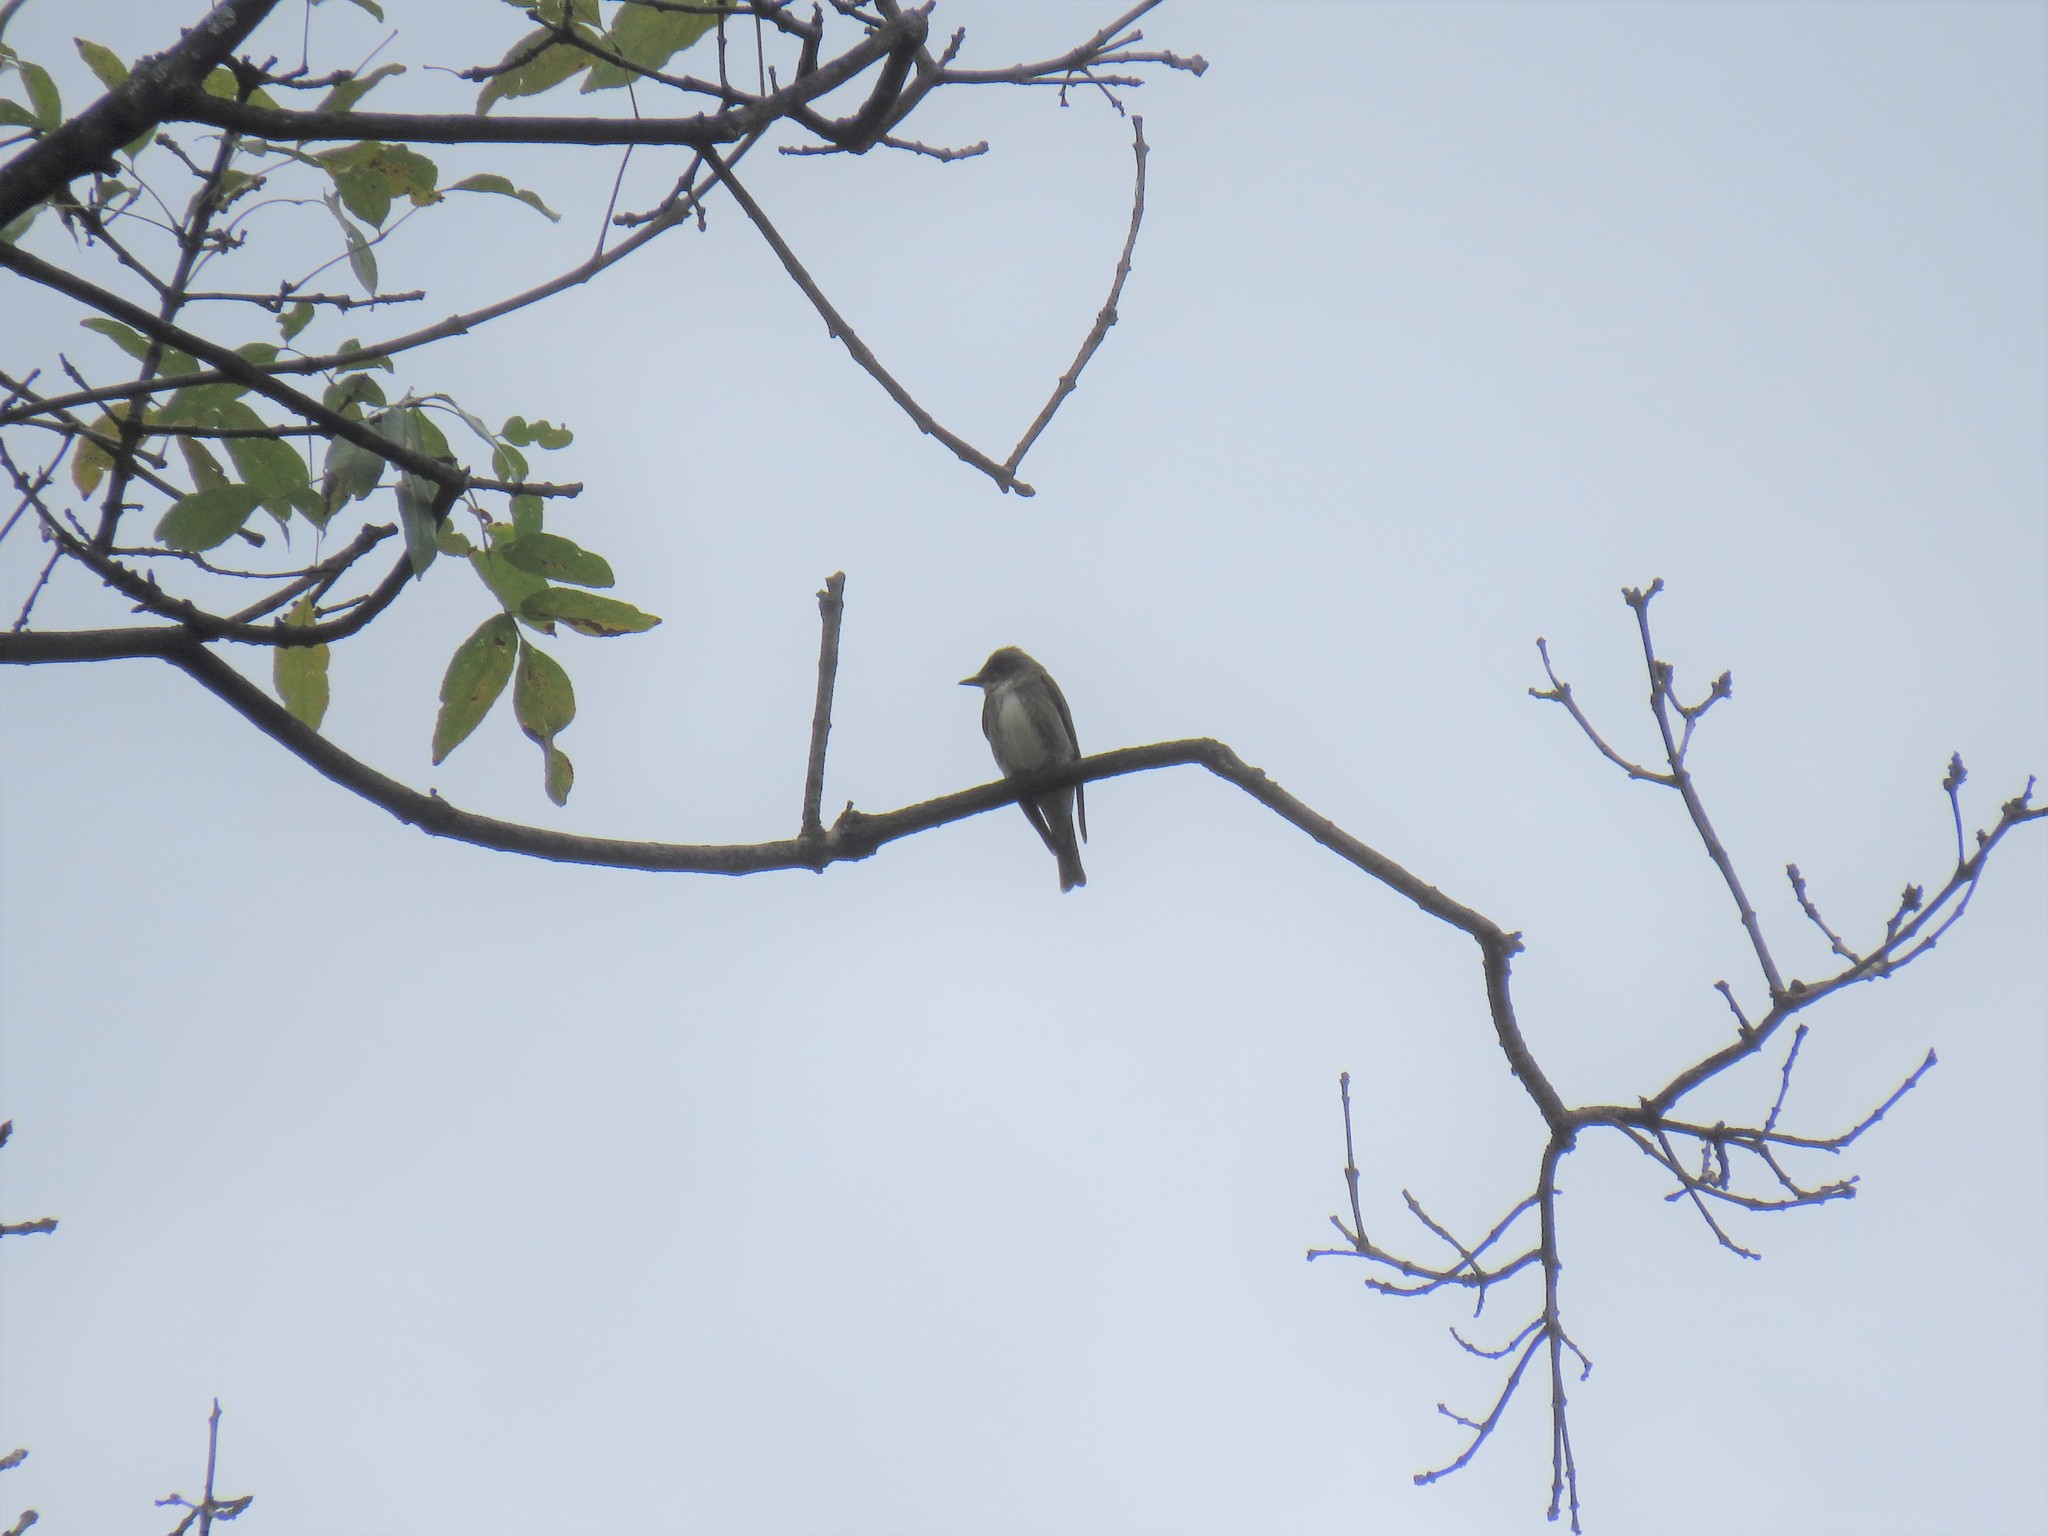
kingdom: Animalia
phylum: Chordata
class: Aves
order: Passeriformes
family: Tyrannidae
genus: Contopus
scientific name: Contopus cooperi
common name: Olive-sided flycatcher
